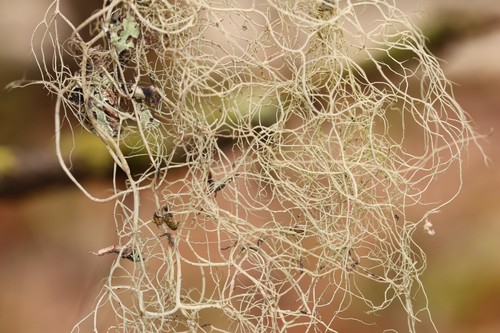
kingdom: Fungi
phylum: Ascomycota
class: Lecanoromycetes
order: Lecanorales
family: Parmeliaceae
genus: Bryoria
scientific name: Bryoria
